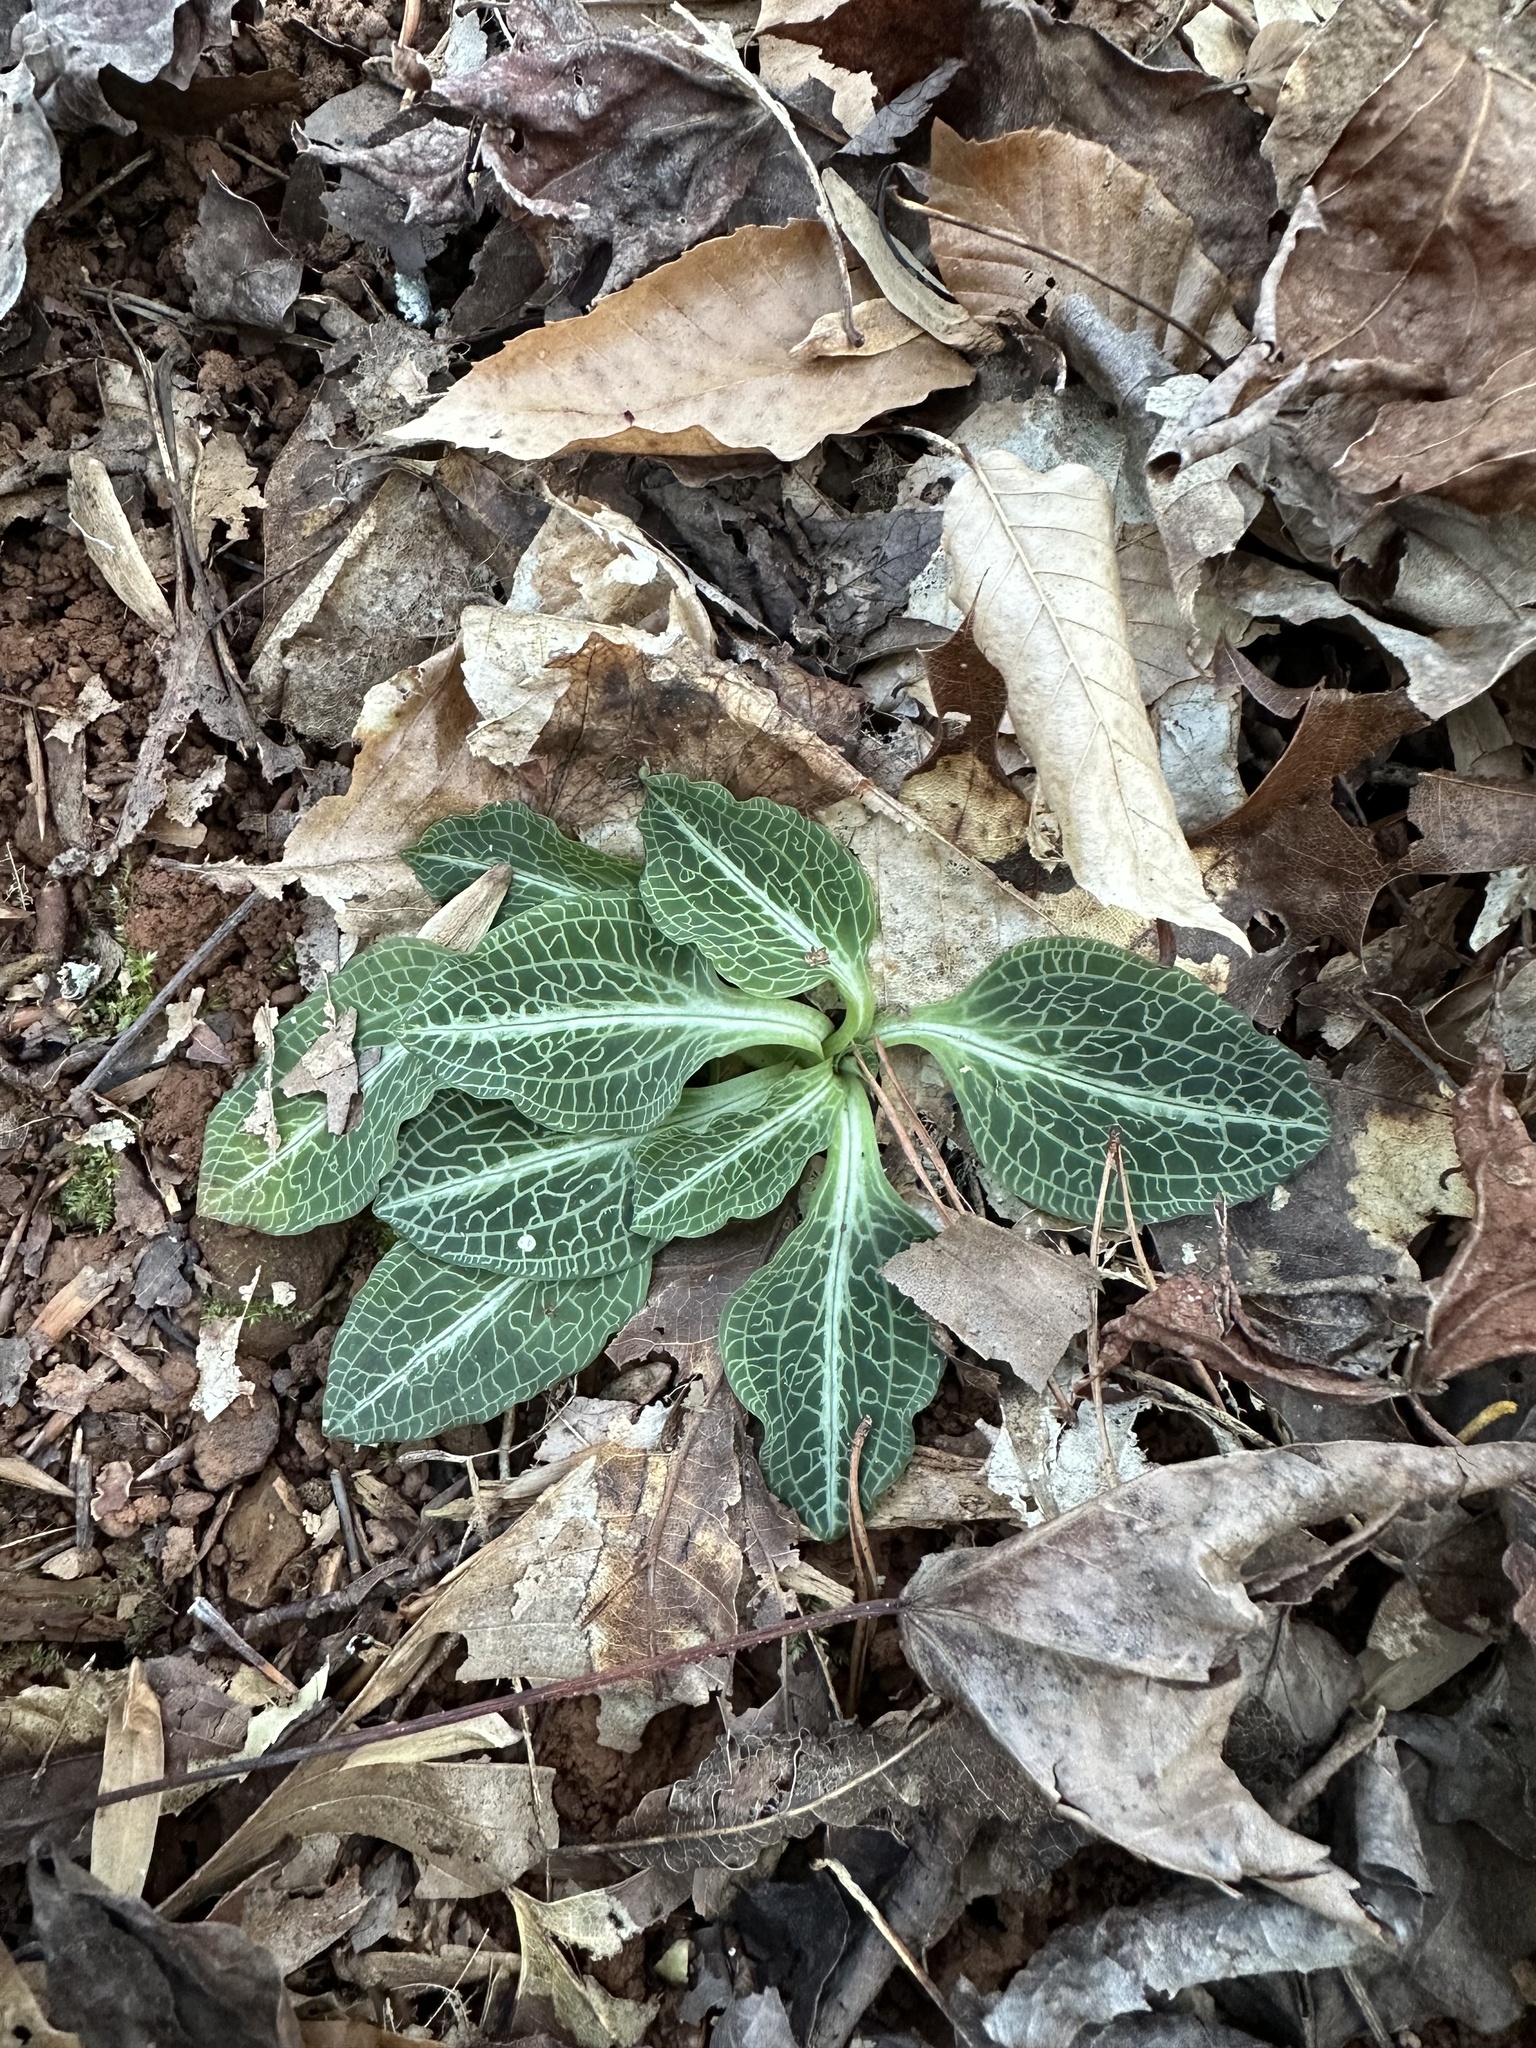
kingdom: Plantae
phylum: Tracheophyta
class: Liliopsida
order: Asparagales
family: Orchidaceae
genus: Goodyera
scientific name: Goodyera pubescens
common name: Downy rattlesnake-plantain
